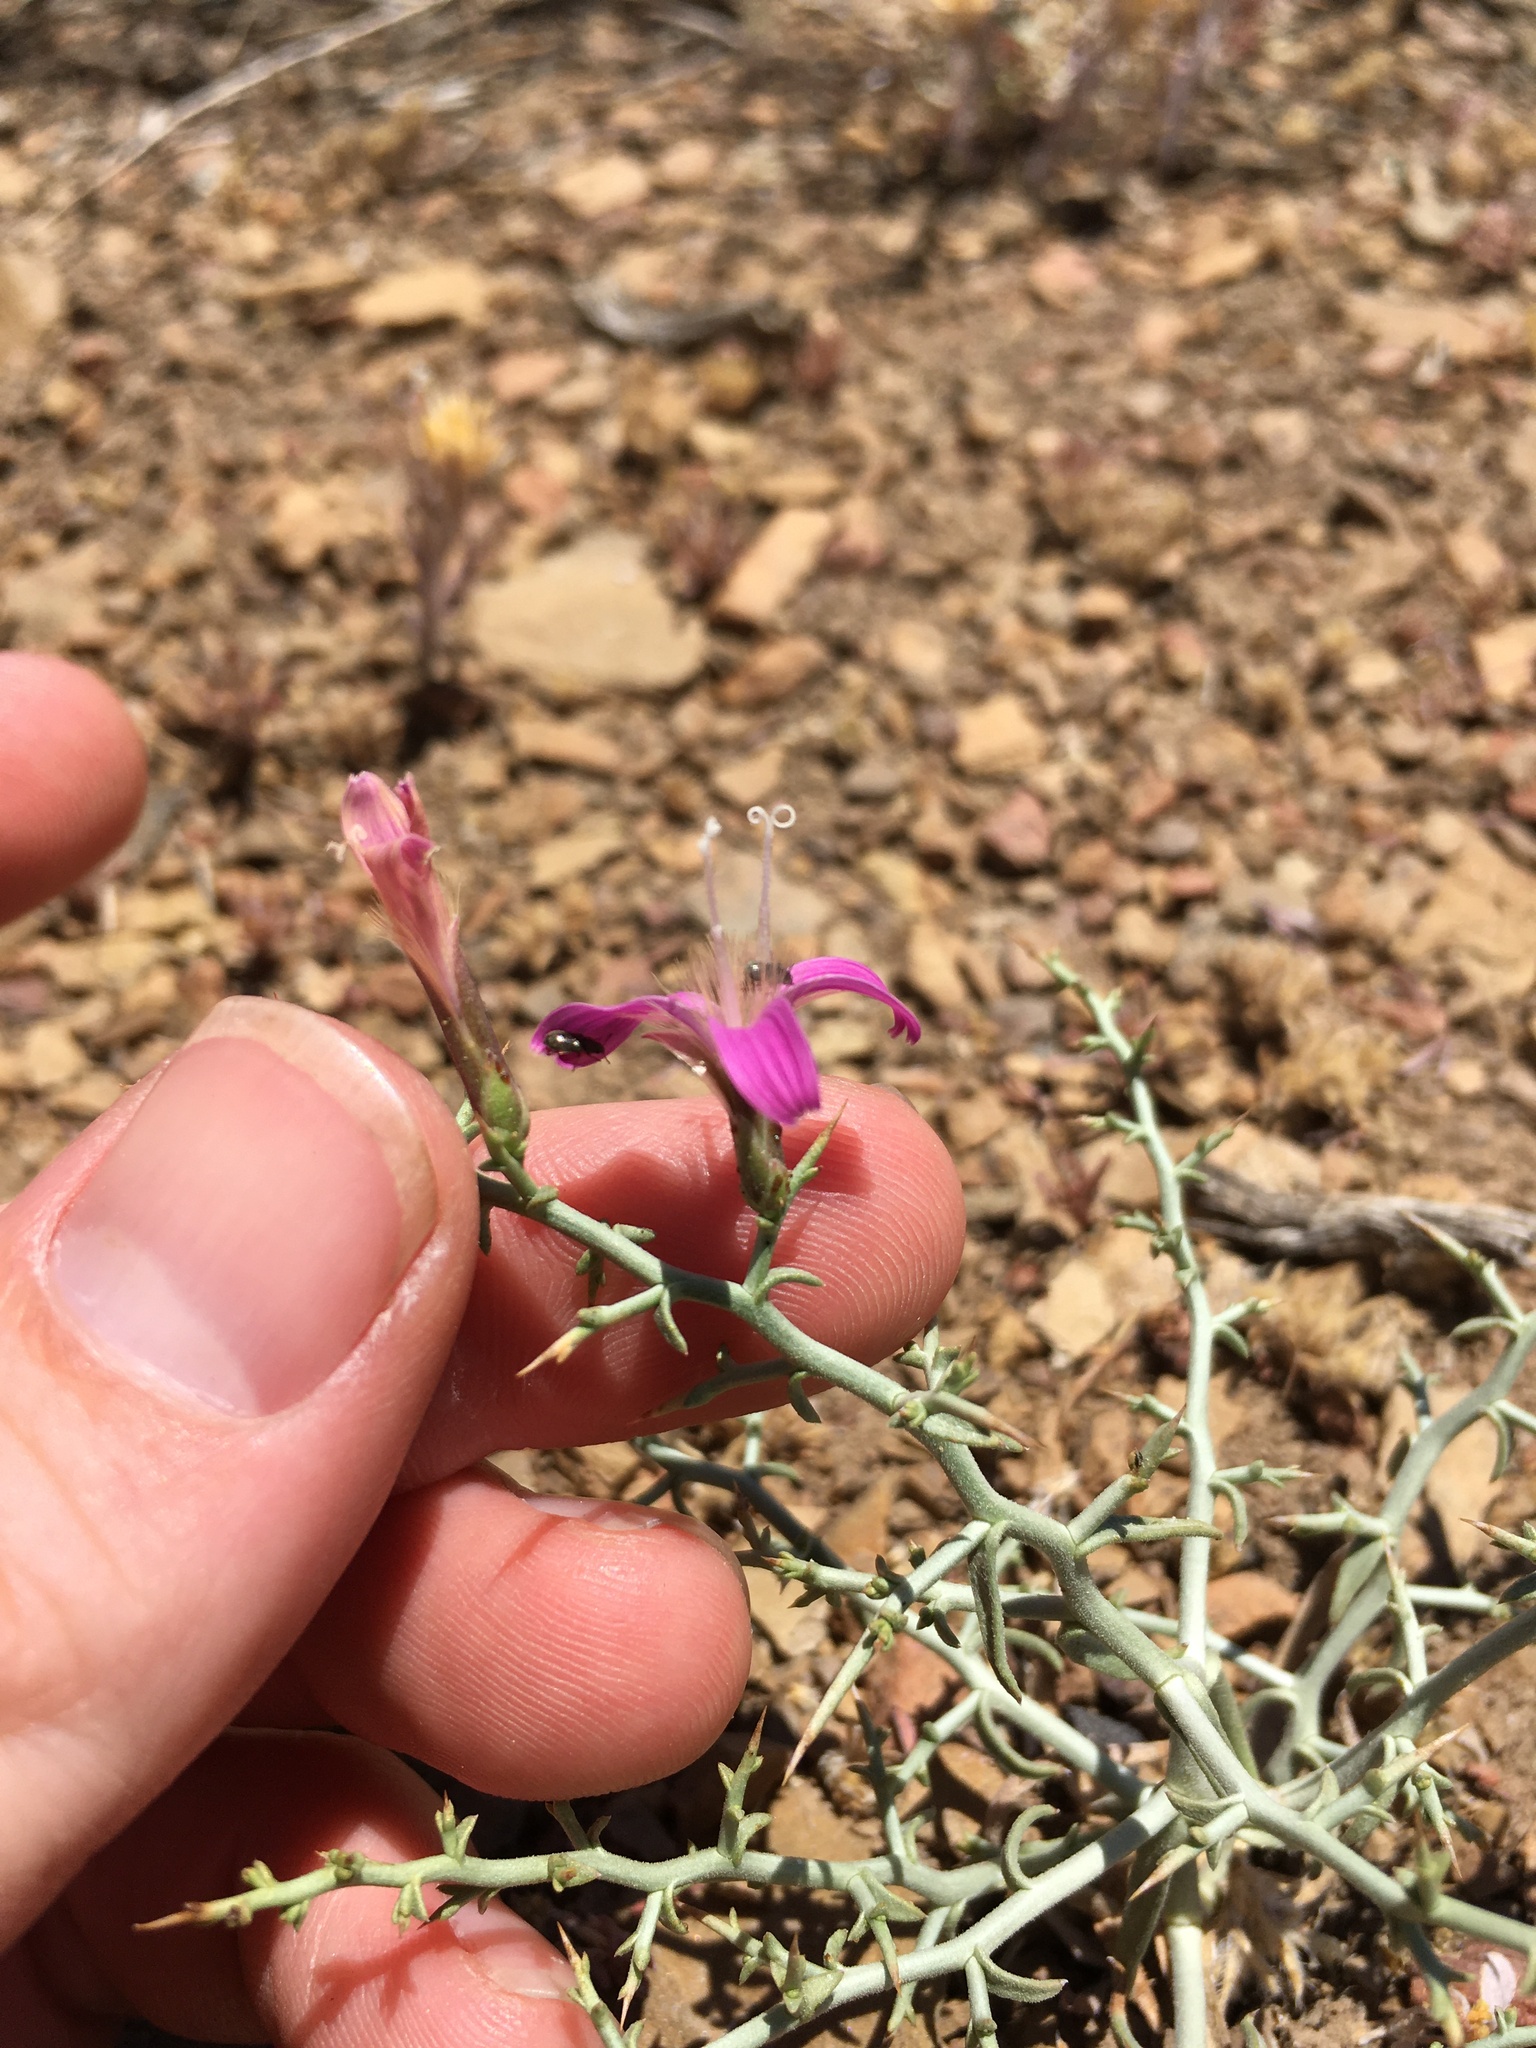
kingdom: Plantae
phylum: Tracheophyta
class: Magnoliopsida
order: Asterales
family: Asteraceae
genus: Pleiacanthus
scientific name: Pleiacanthus spinosus
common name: Thorny skeleton-weed
